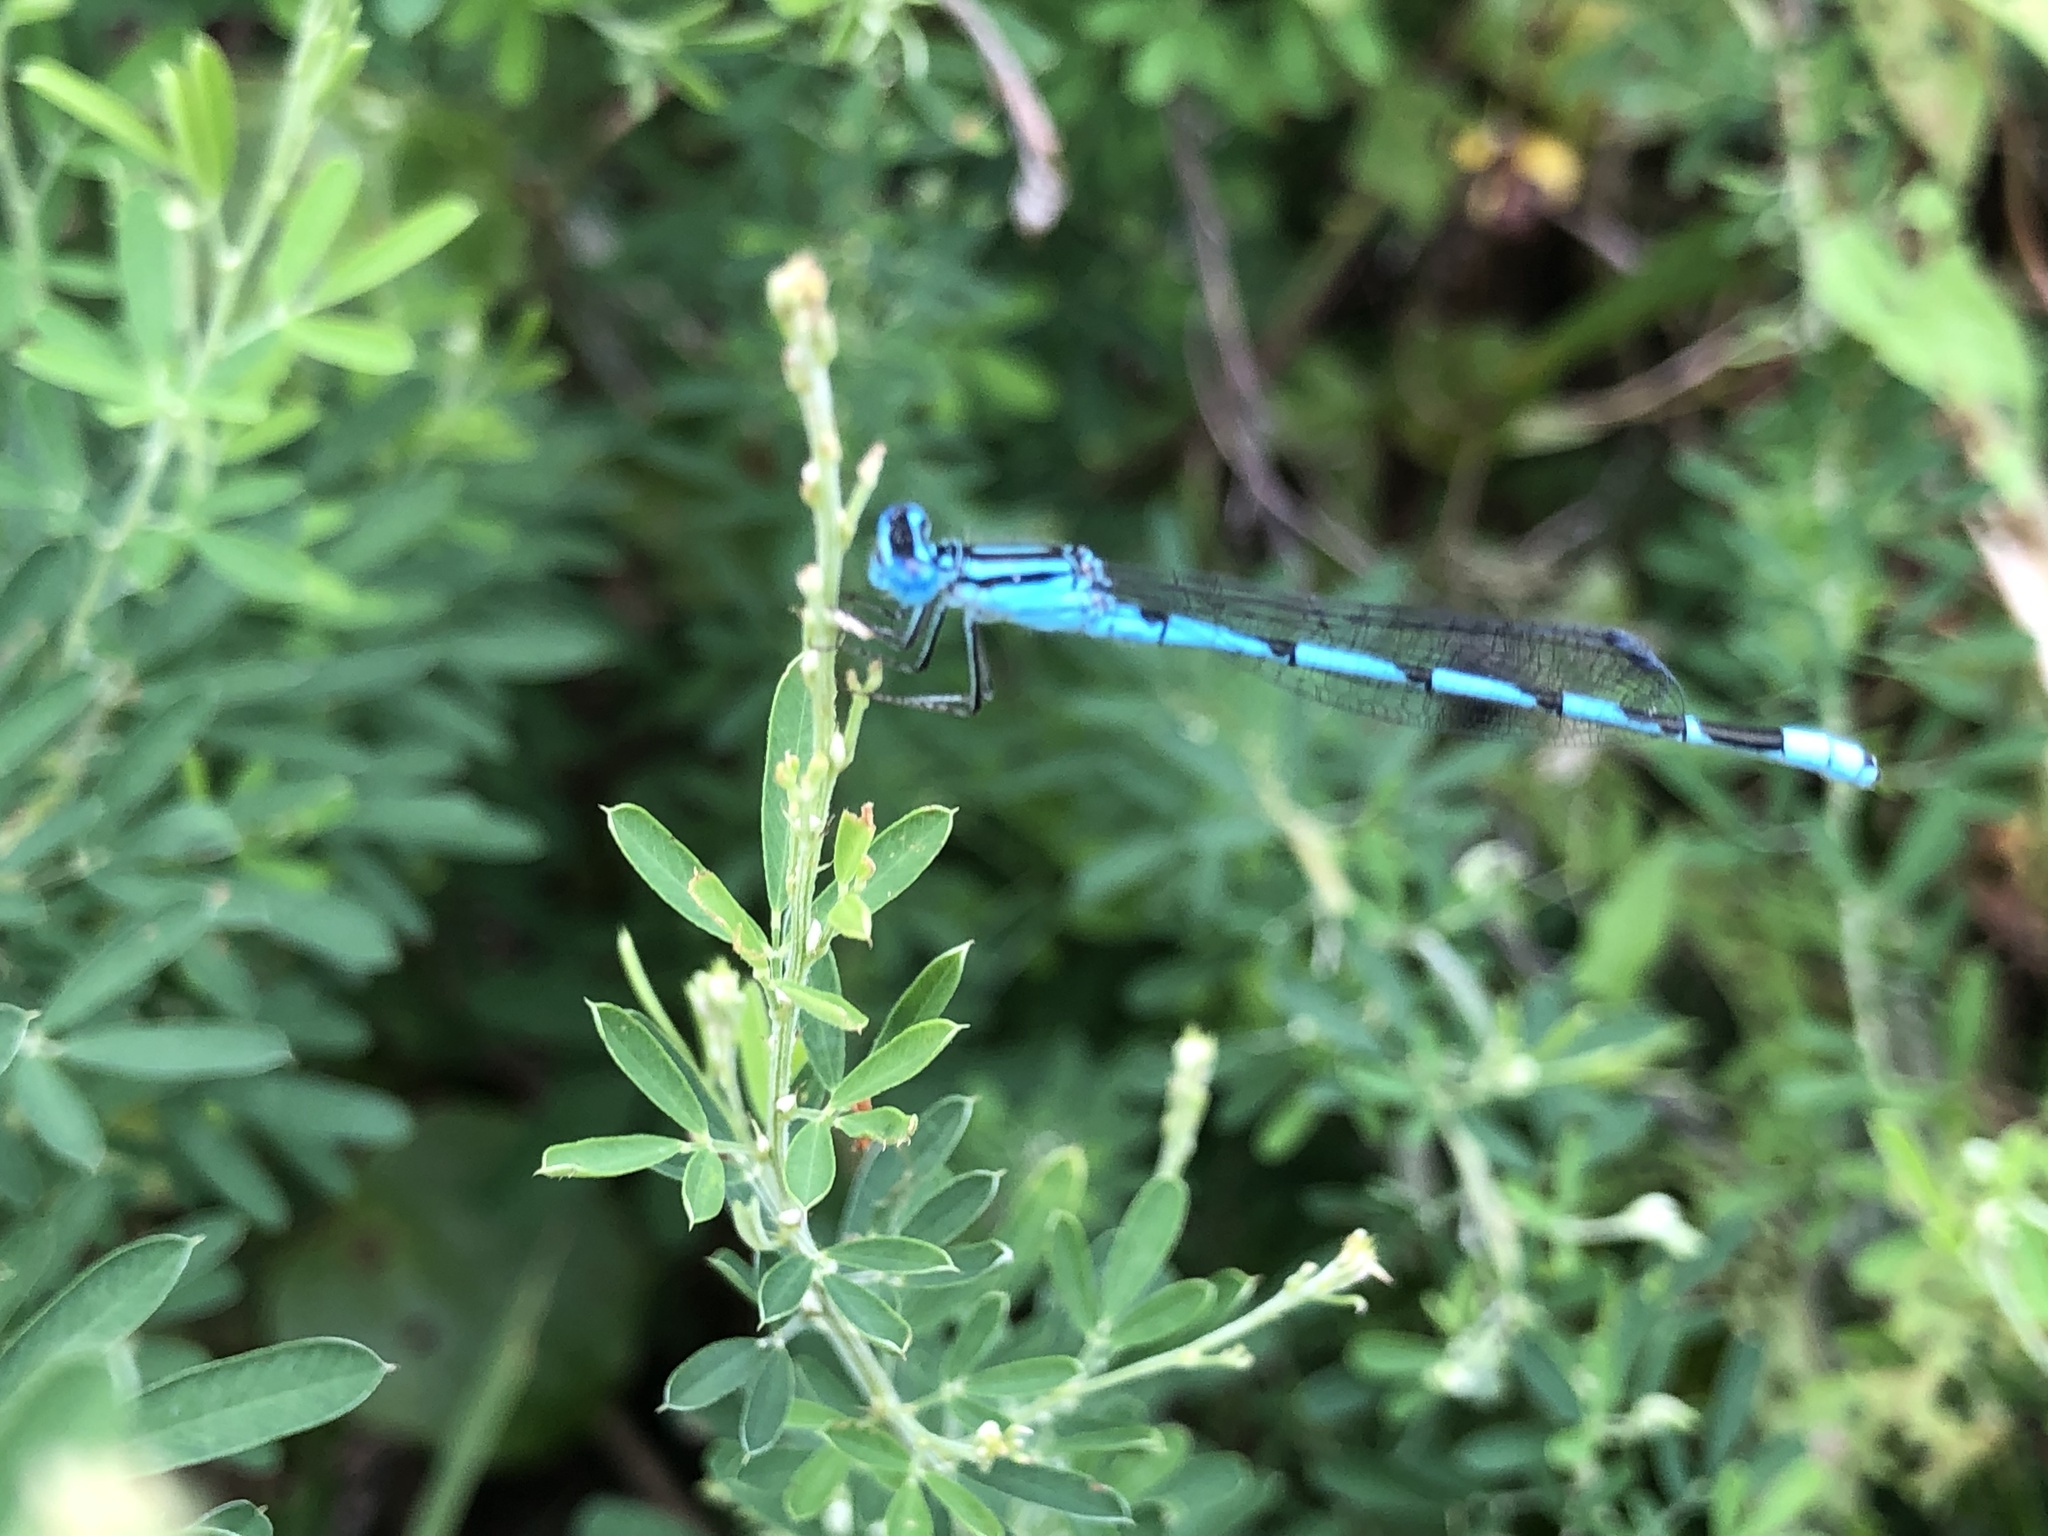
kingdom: Animalia
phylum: Arthropoda
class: Insecta
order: Odonata
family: Coenagrionidae
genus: Enallagma
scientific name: Enallagma durum
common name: Big bluet
